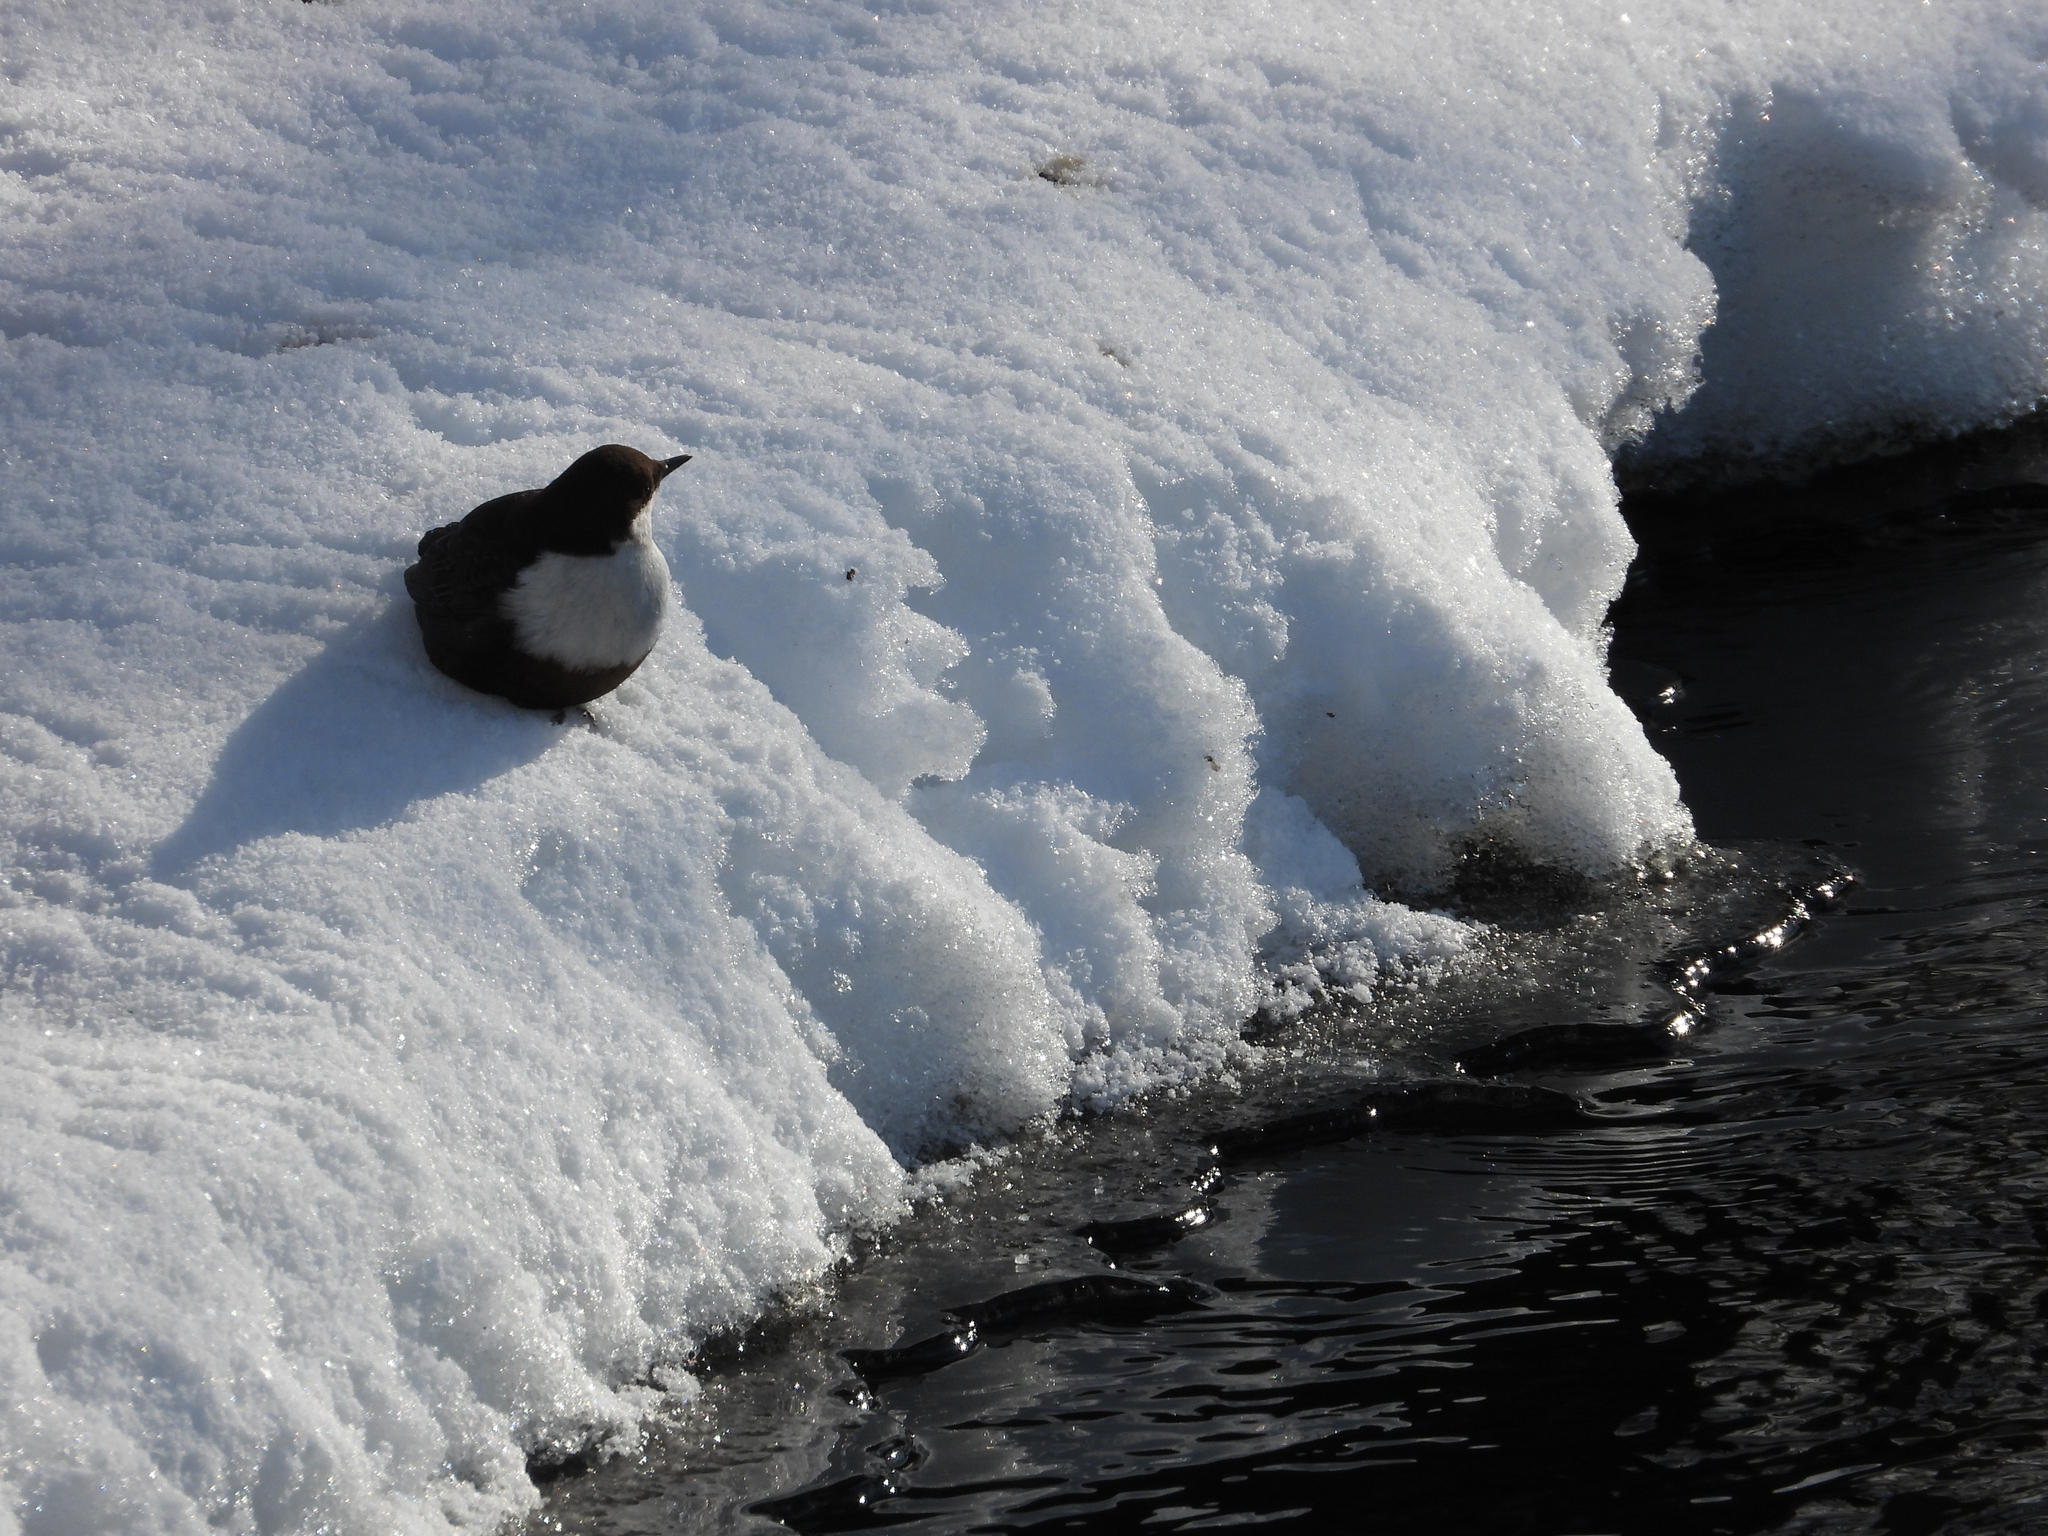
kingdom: Animalia
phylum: Chordata
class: Aves
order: Passeriformes
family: Cinclidae
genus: Cinclus
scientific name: Cinclus cinclus
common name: White-throated dipper
